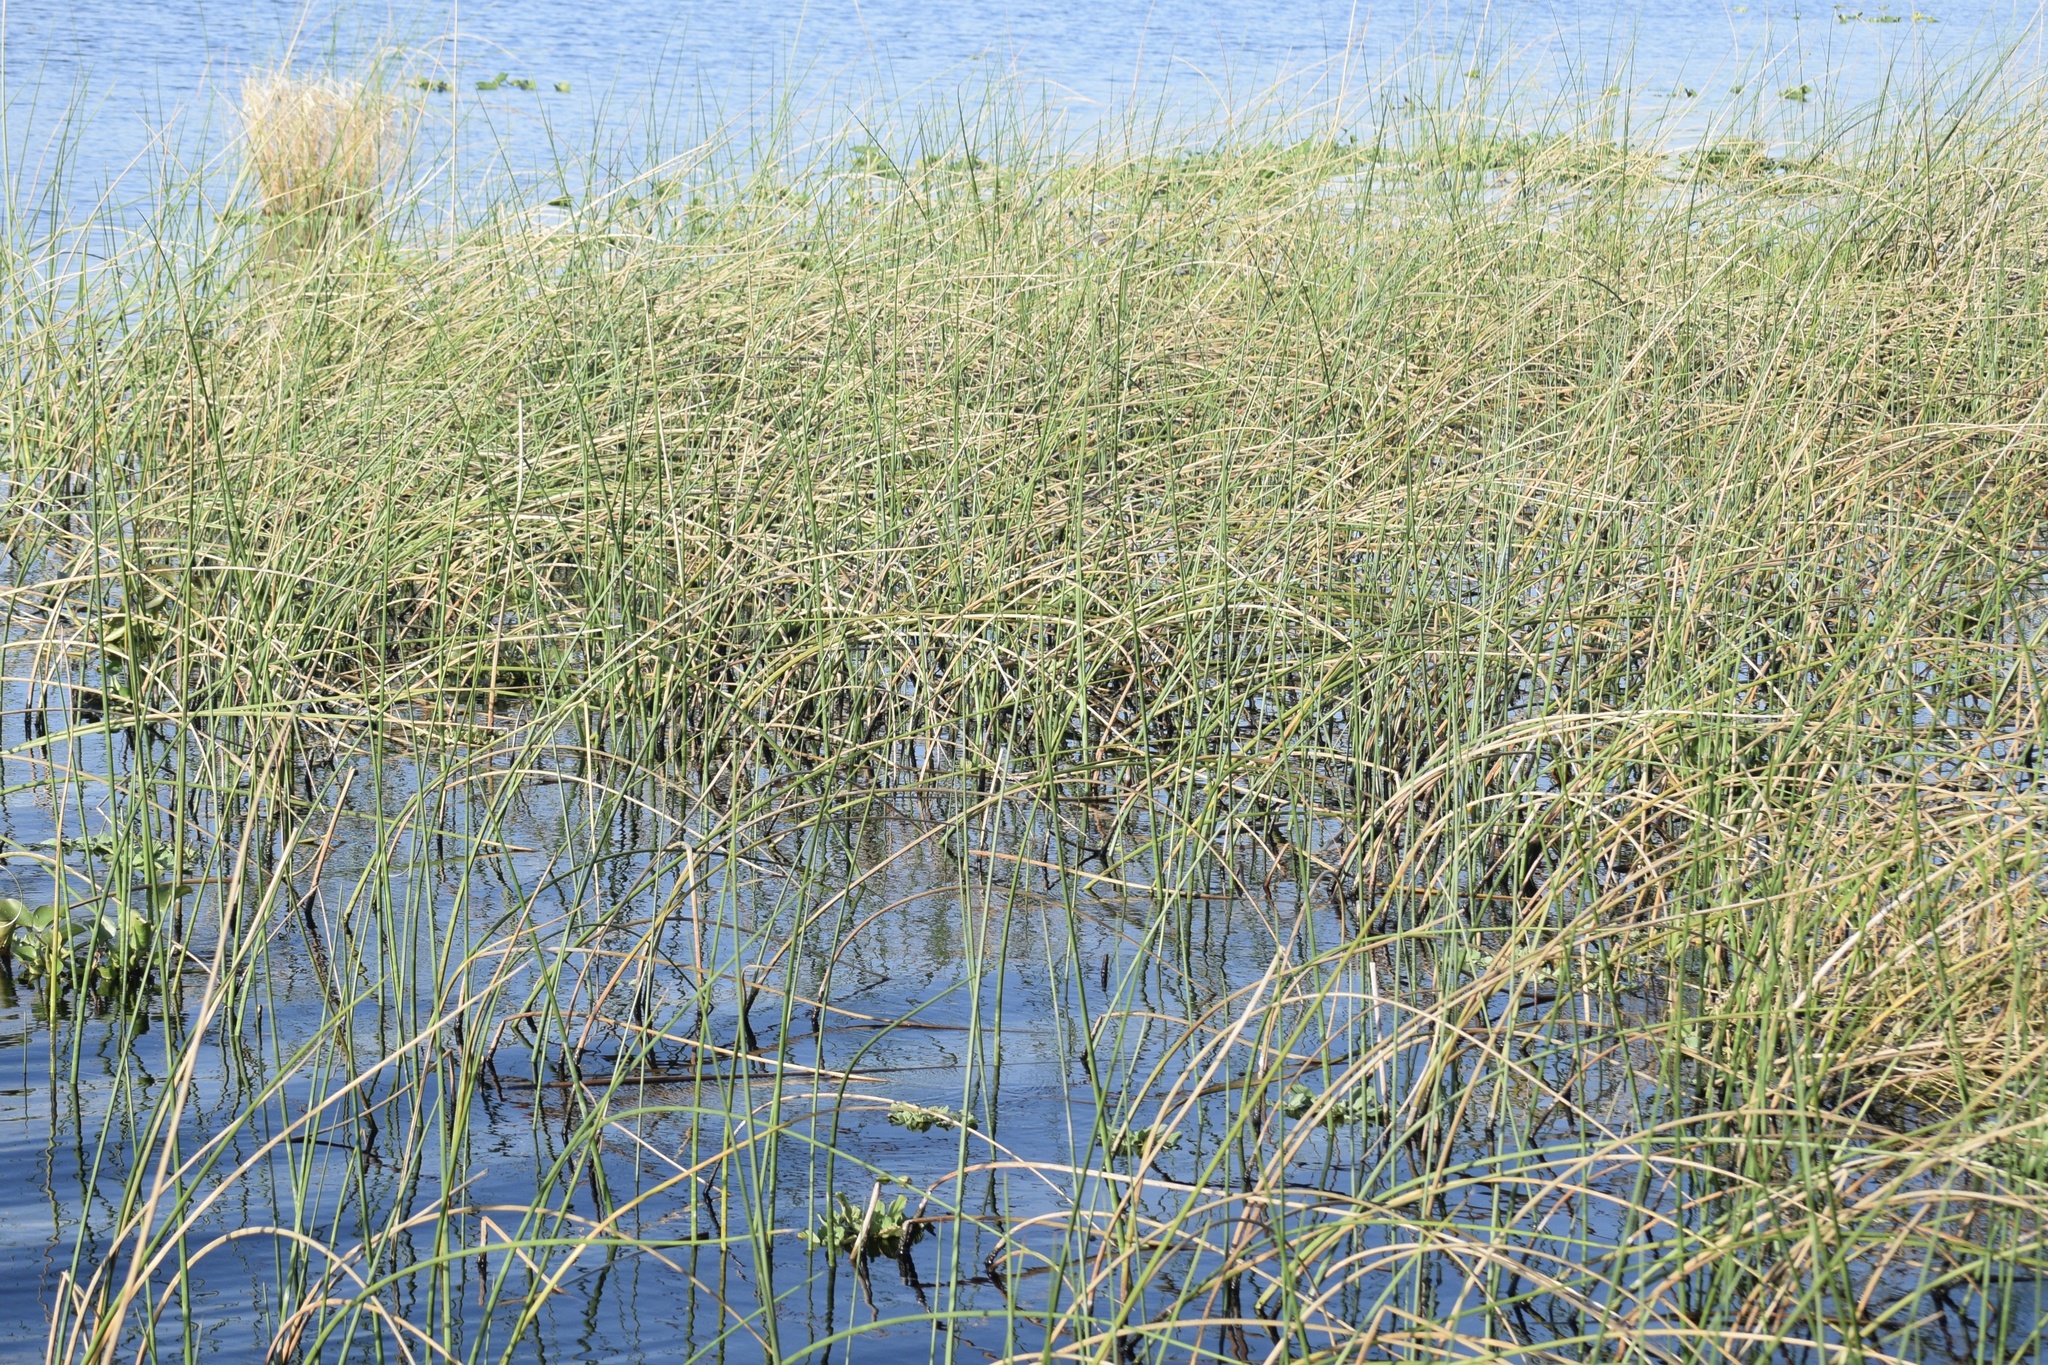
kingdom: Plantae
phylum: Tracheophyta
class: Liliopsida
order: Poales
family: Cyperaceae
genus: Schoenoplectus
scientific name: Schoenoplectus tabernaemontani
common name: Grey club-rush
